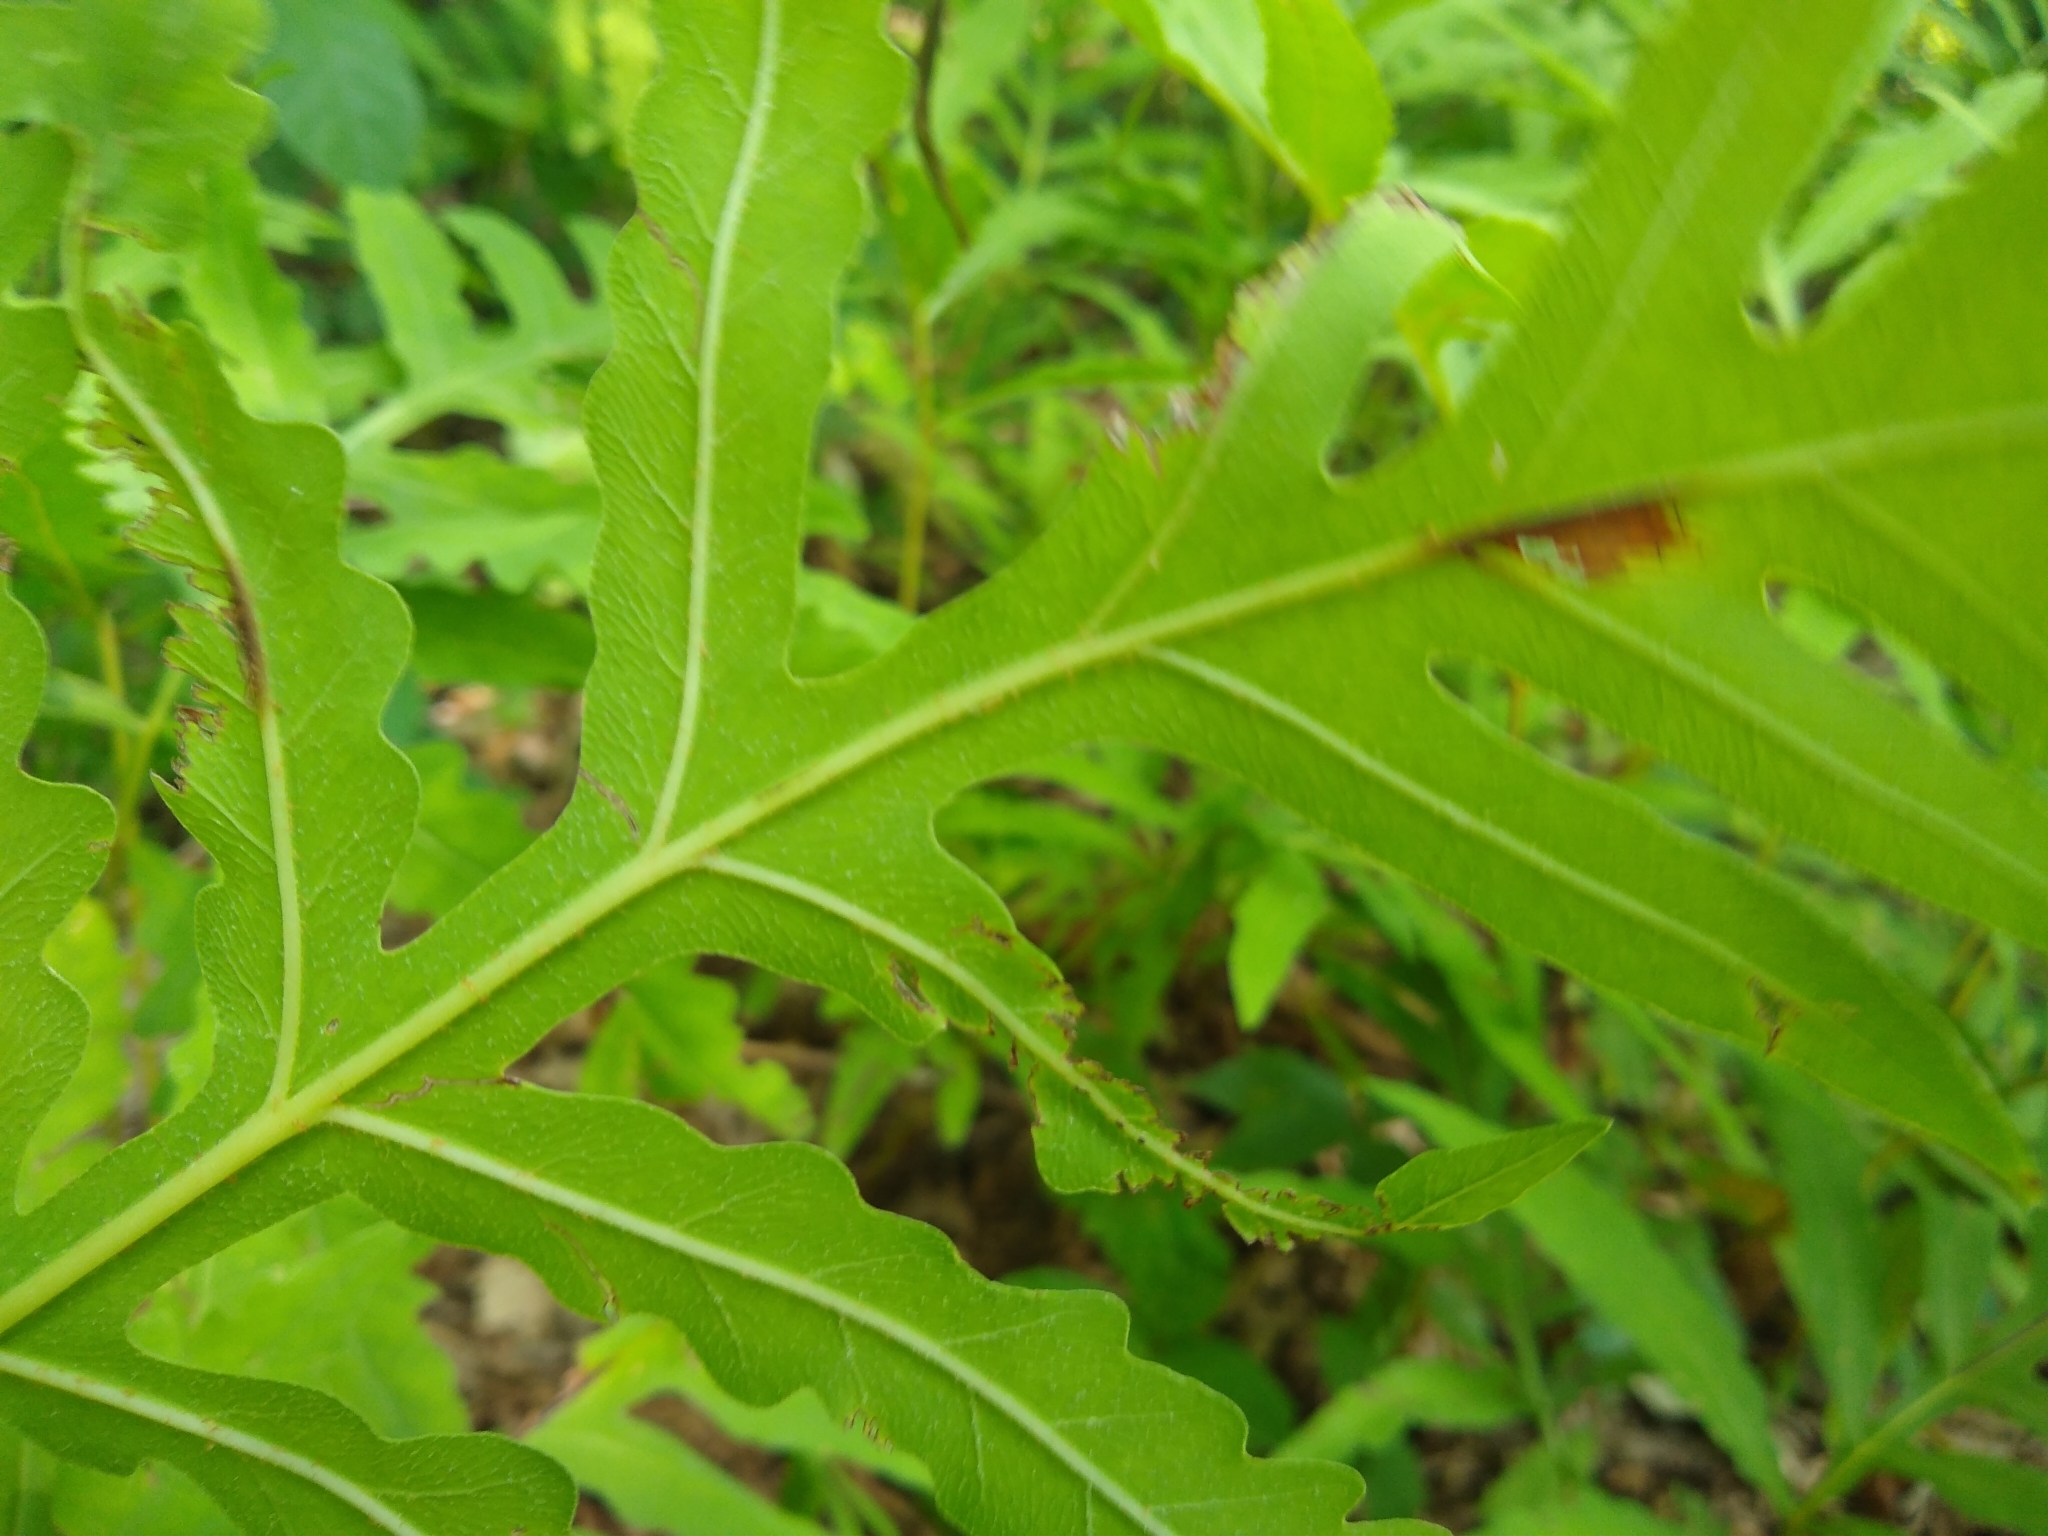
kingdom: Plantae
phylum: Tracheophyta
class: Polypodiopsida
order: Polypodiales
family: Onocleaceae
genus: Onoclea
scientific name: Onoclea sensibilis
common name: Sensitive fern
